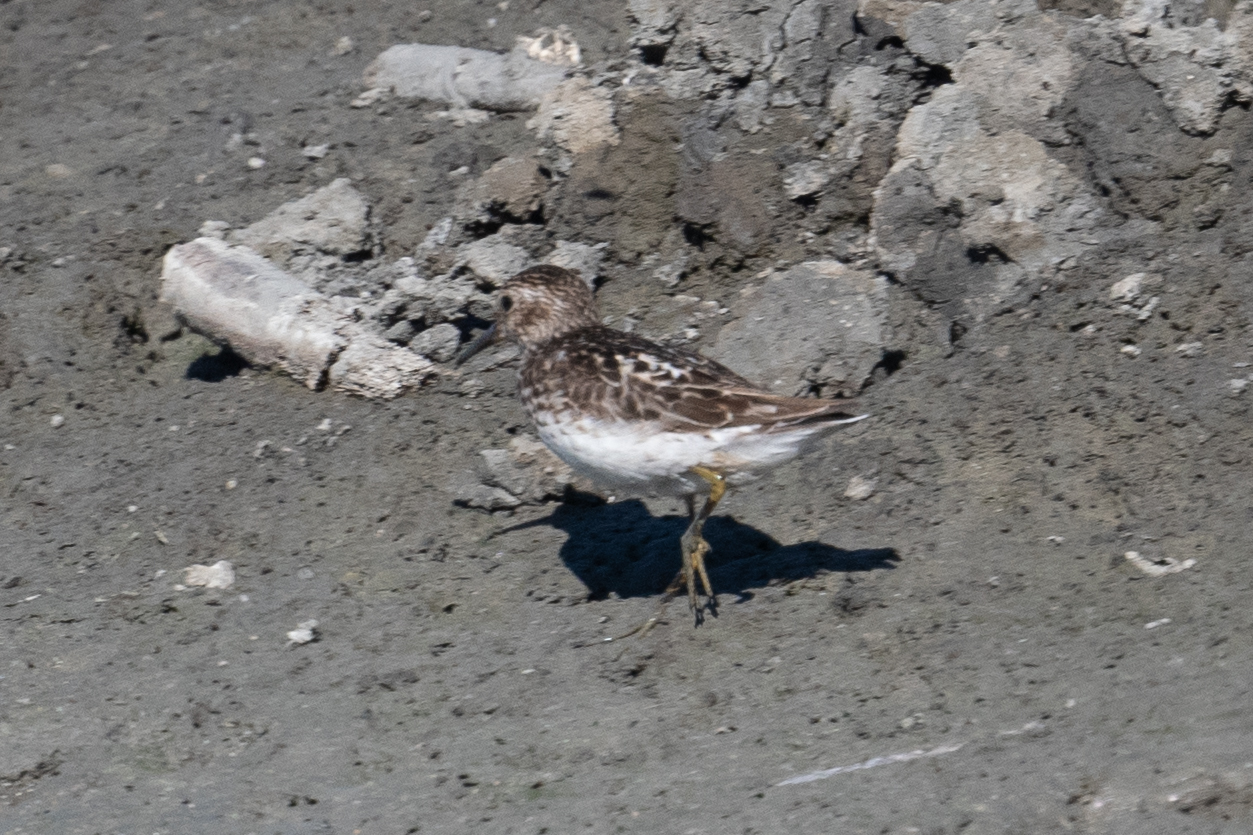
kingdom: Animalia
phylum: Chordata
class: Aves
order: Charadriiformes
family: Scolopacidae
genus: Calidris
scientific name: Calidris minutilla
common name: Least sandpiper
